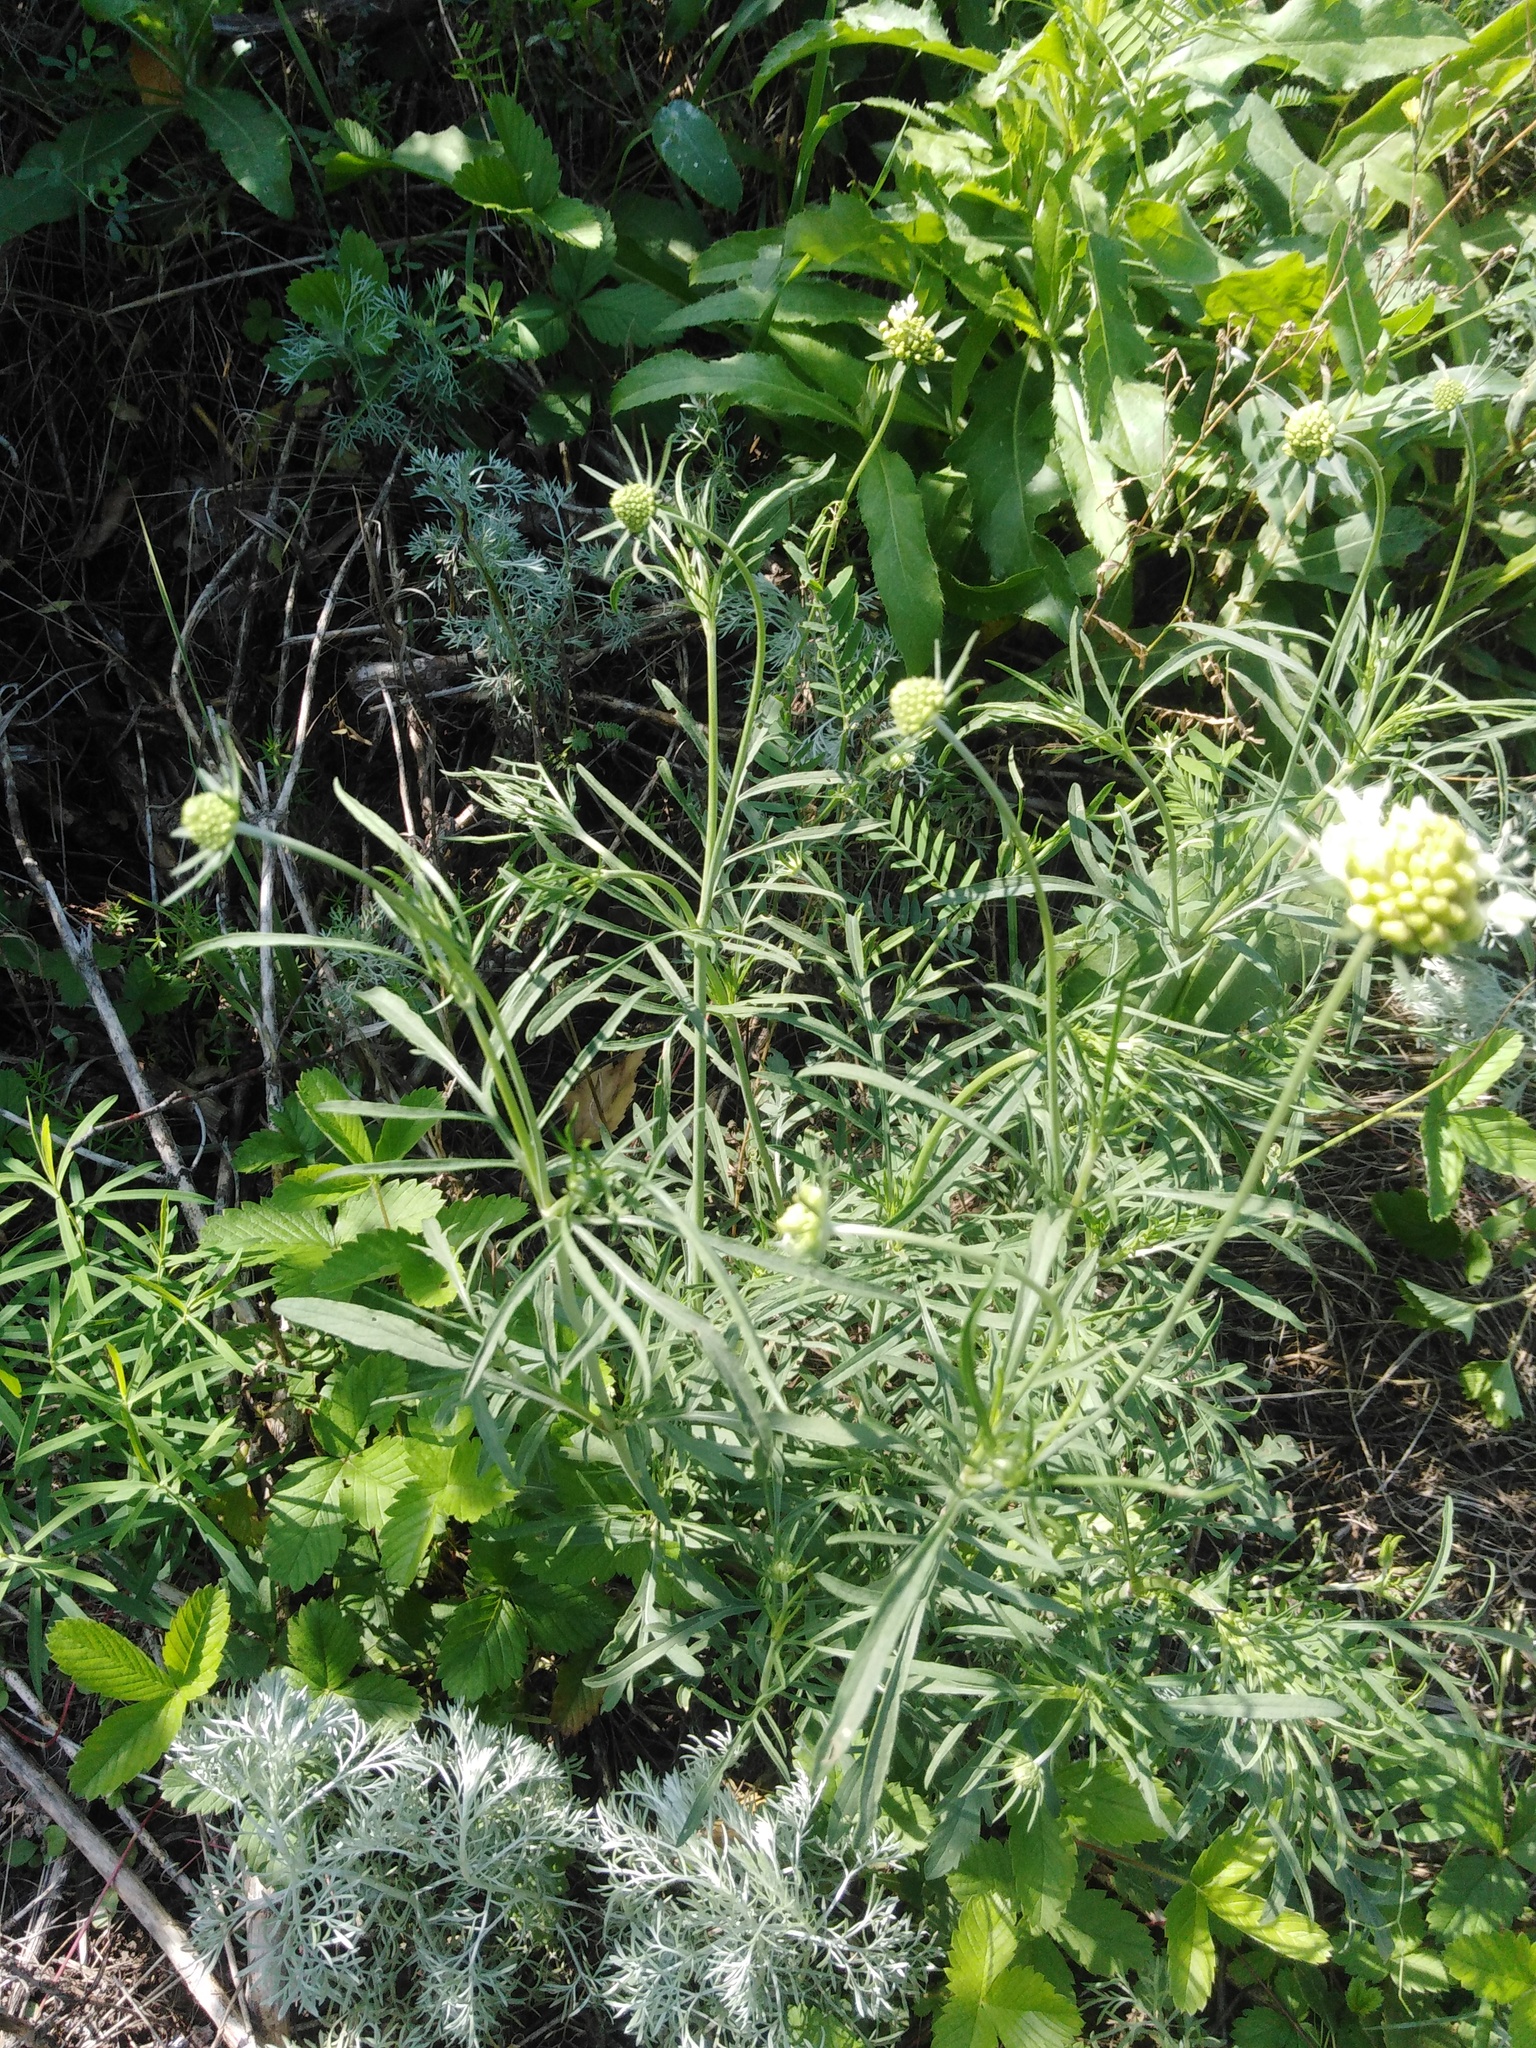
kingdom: Plantae
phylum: Tracheophyta
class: Magnoliopsida
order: Dipsacales
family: Caprifoliaceae
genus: Scabiosa
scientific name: Scabiosa ochroleuca
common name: Cream pincushions
